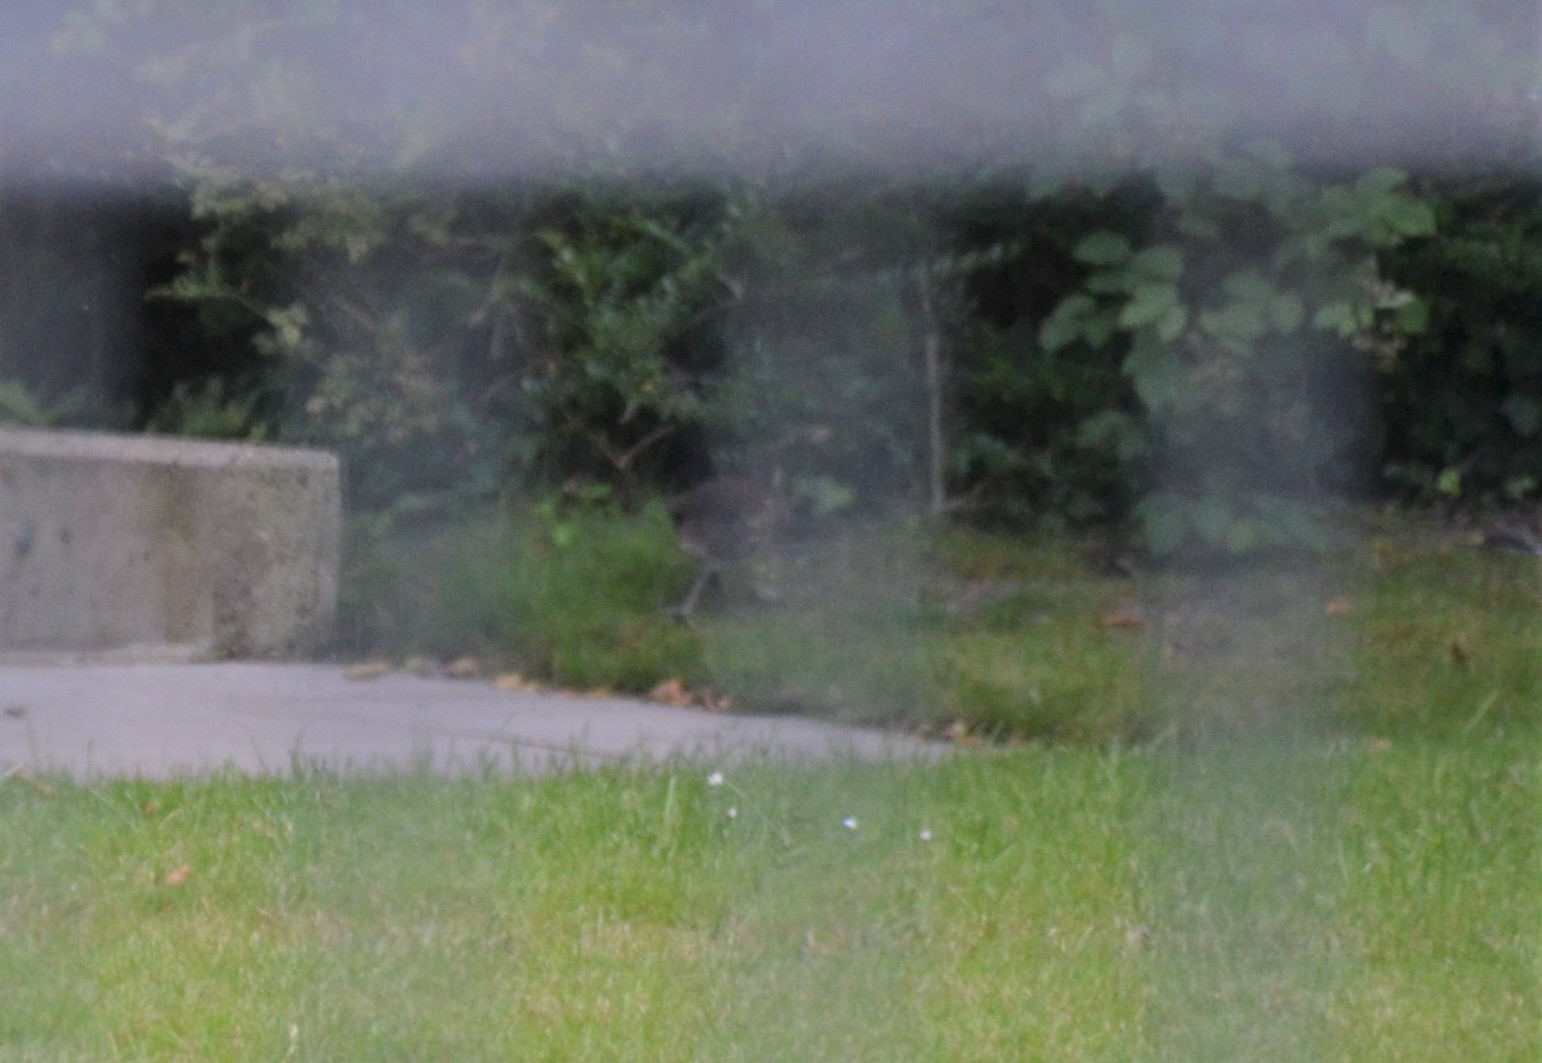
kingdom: Animalia
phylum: Chordata
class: Aves
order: Gruiformes
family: Rallidae
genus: Gallinula
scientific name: Gallinula chloropus
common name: Common moorhen
